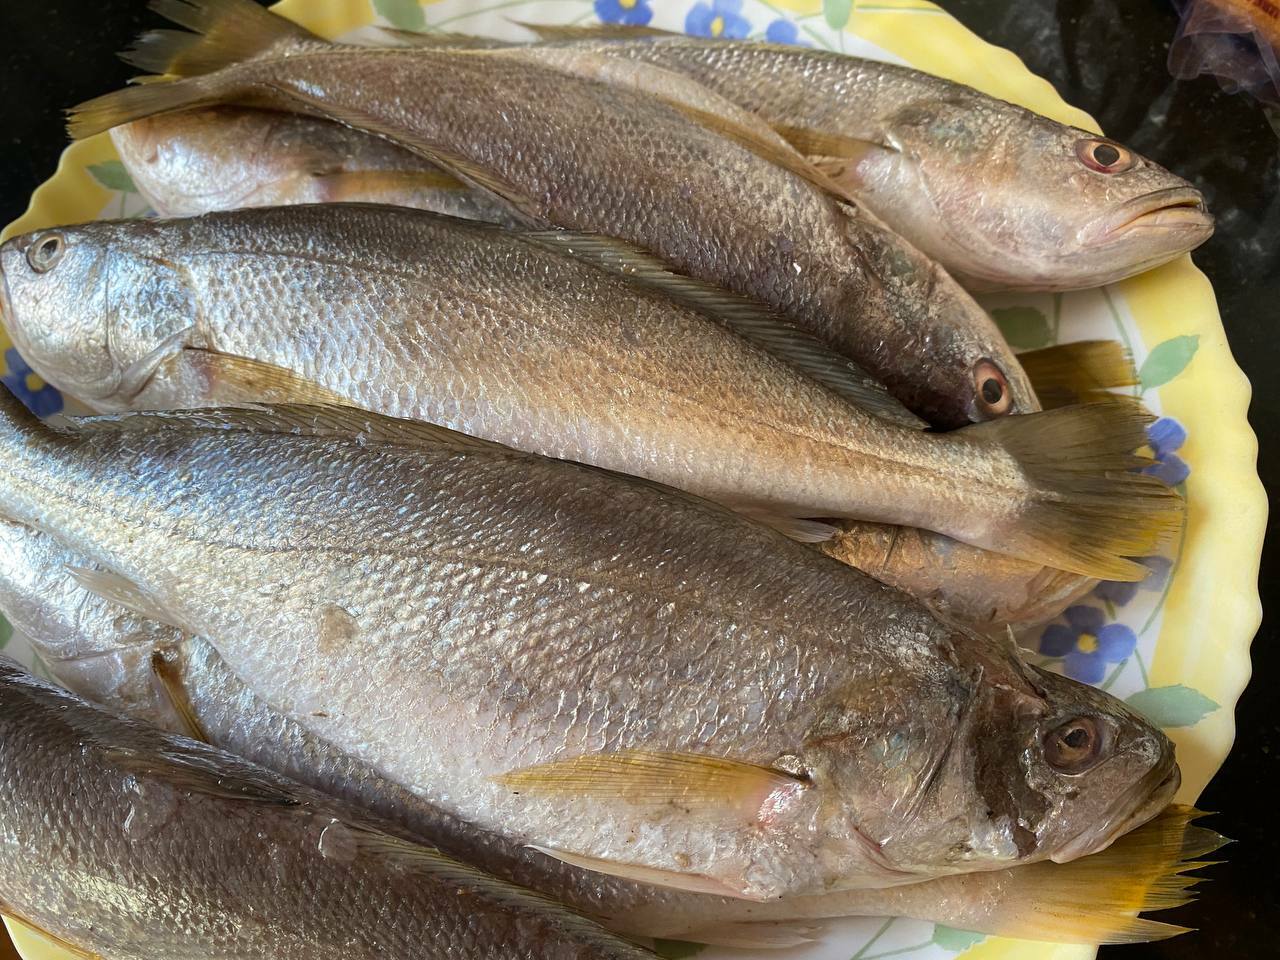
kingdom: Animalia
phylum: Chordata
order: Perciformes
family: Sciaenidae
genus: Otolithes
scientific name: Otolithes ruber
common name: Croaker
